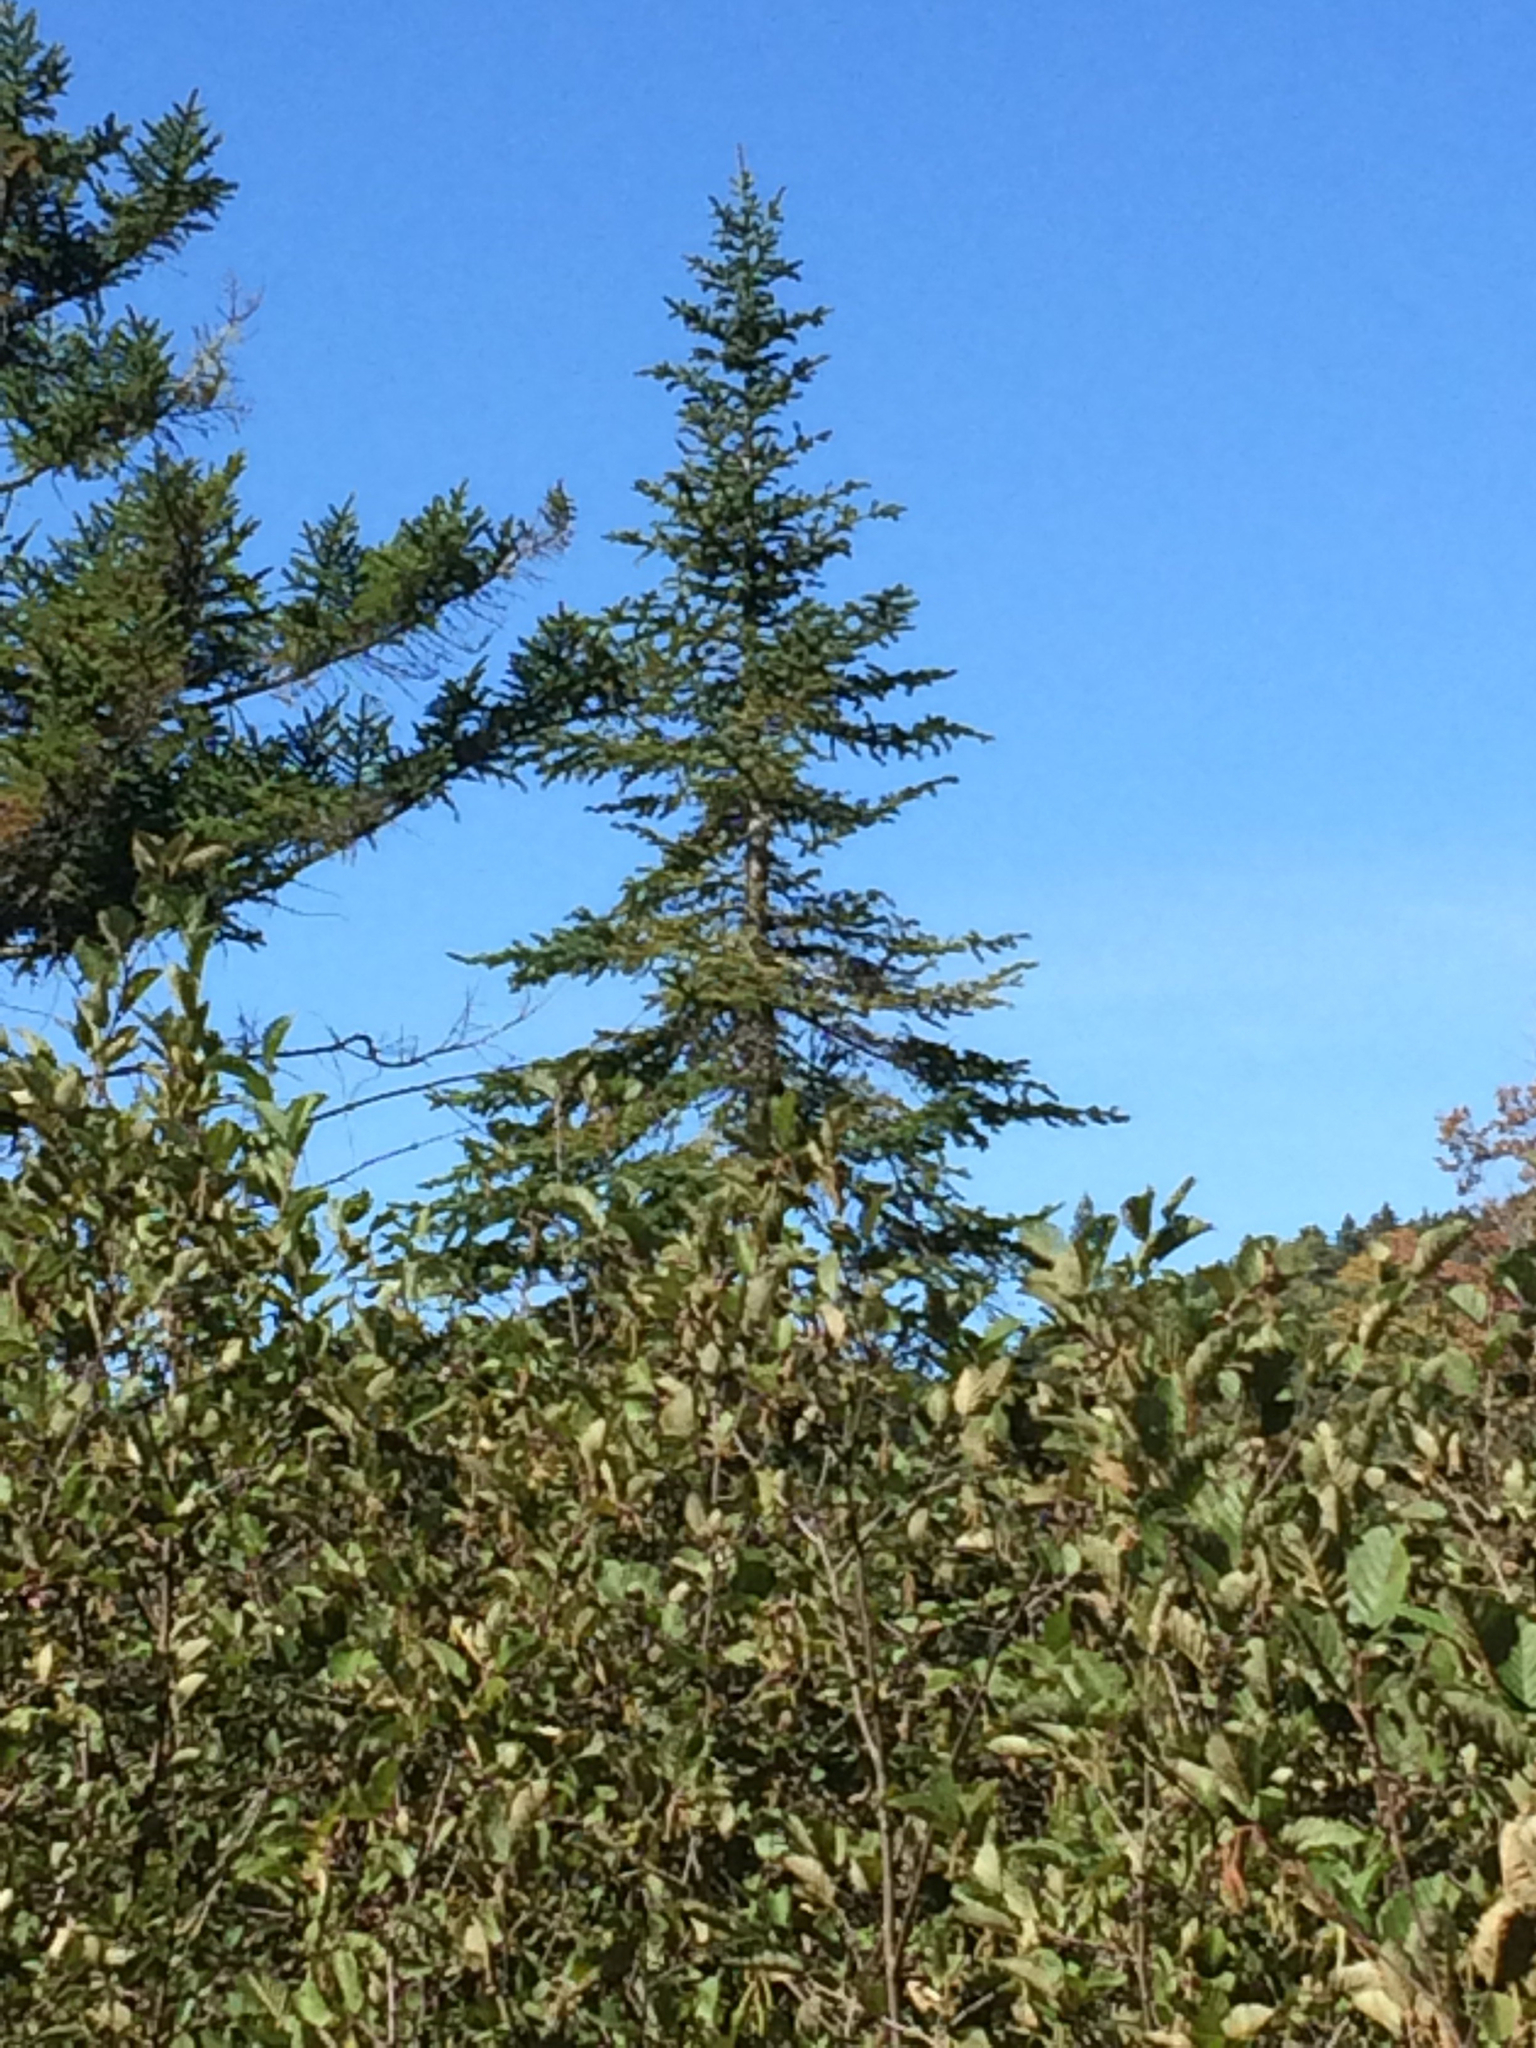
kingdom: Plantae
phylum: Tracheophyta
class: Pinopsida
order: Pinales
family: Pinaceae
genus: Abies
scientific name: Abies balsamea
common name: Balsam fir
